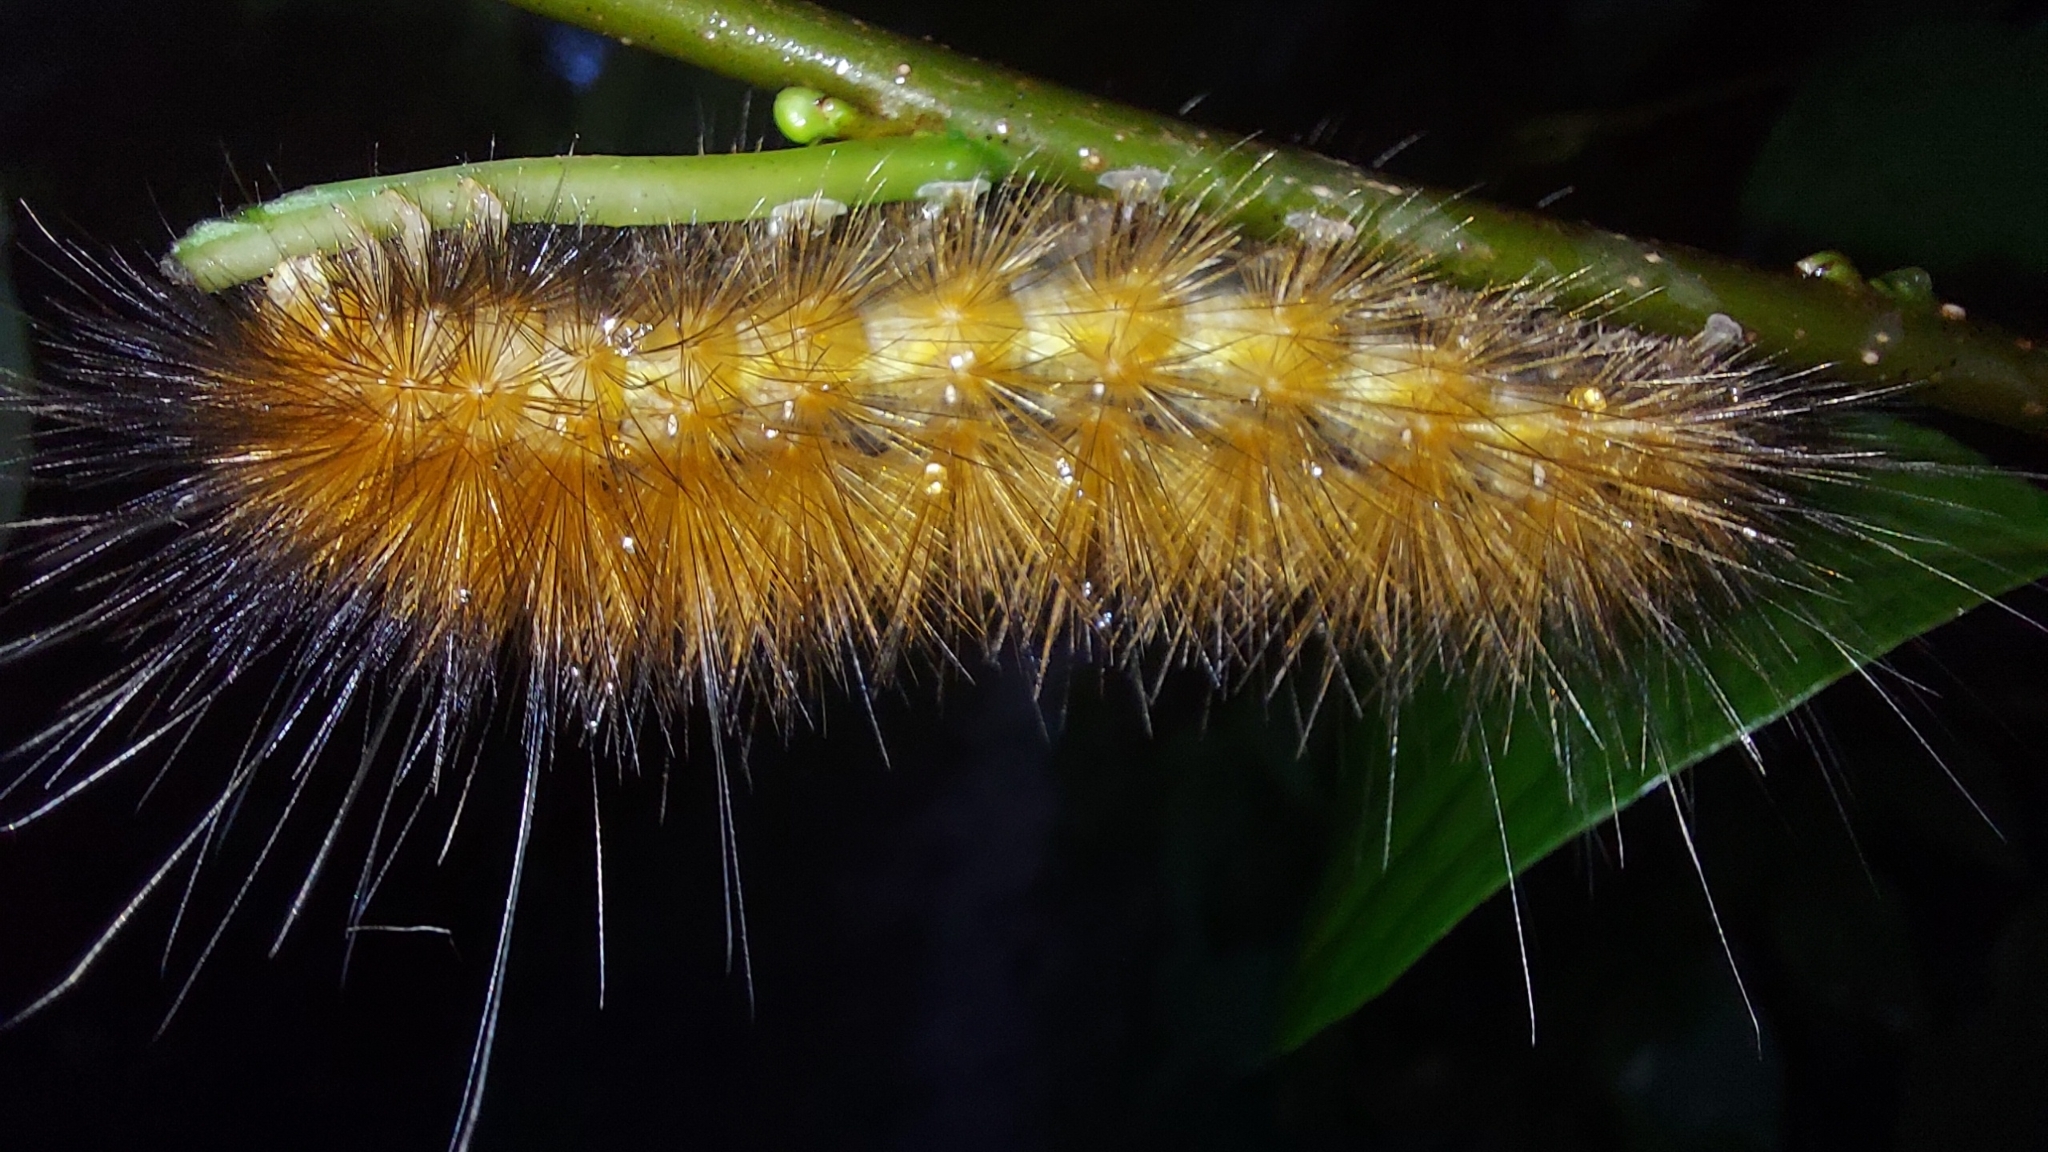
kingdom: Animalia
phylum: Arthropoda
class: Insecta
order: Lepidoptera
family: Erebidae
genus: Spilosoma
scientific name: Spilosoma virginica
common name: Virginia tiger moth
